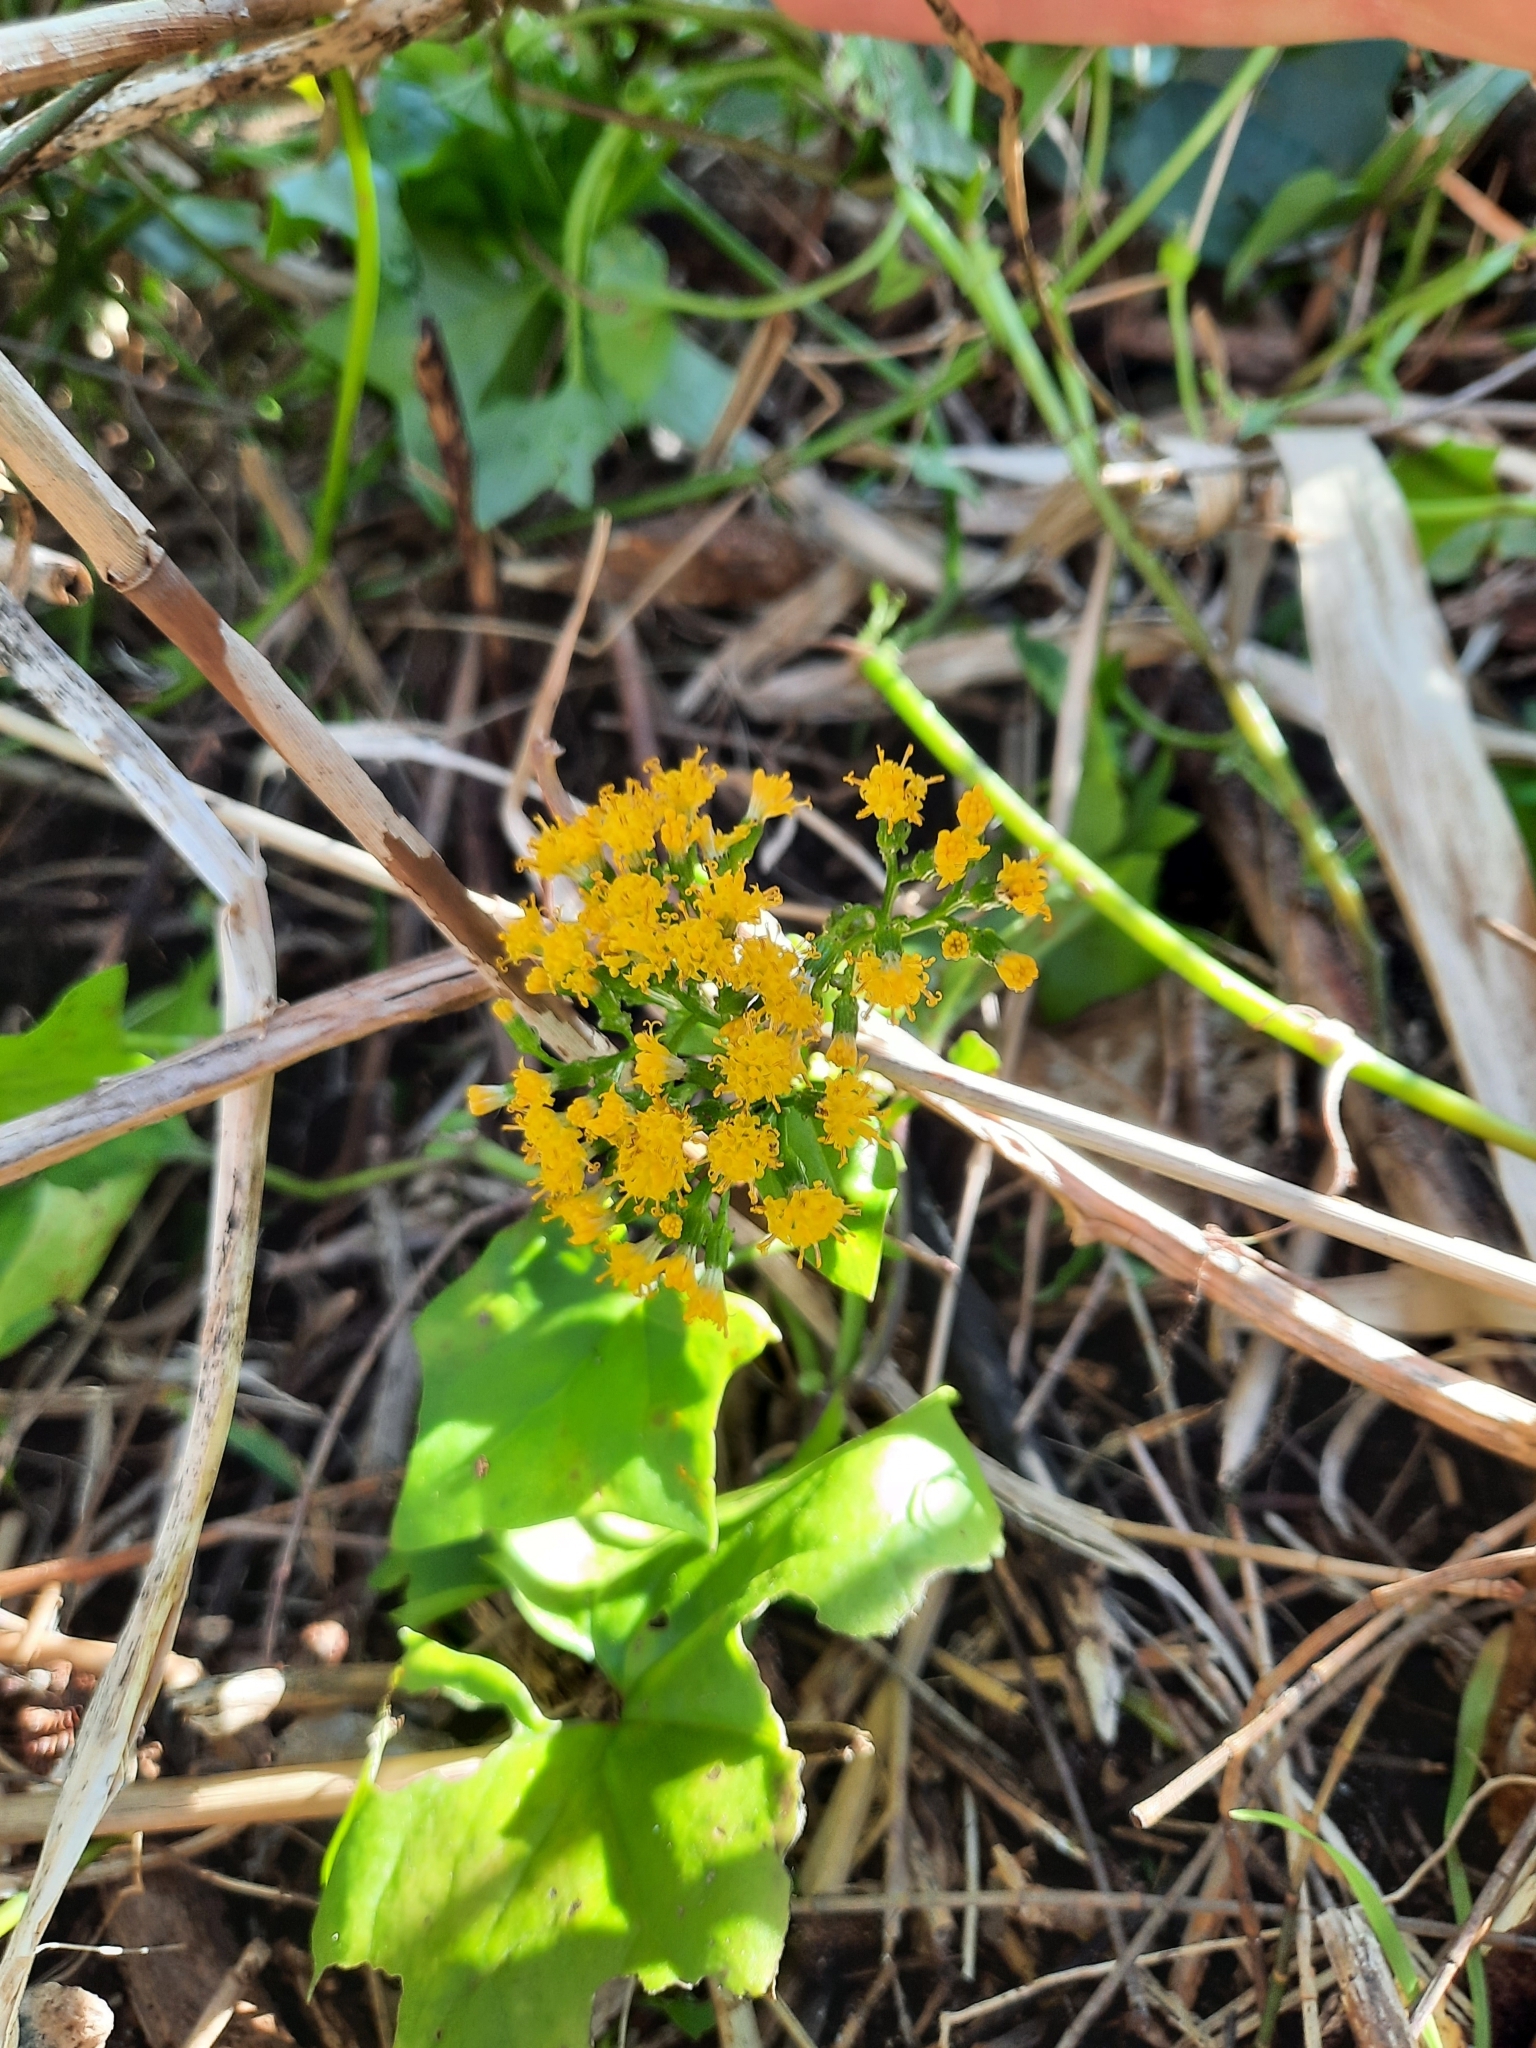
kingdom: Plantae
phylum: Tracheophyta
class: Magnoliopsida
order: Asterales
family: Asteraceae
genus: Delairea
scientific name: Delairea odorata
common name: Cape-ivy
